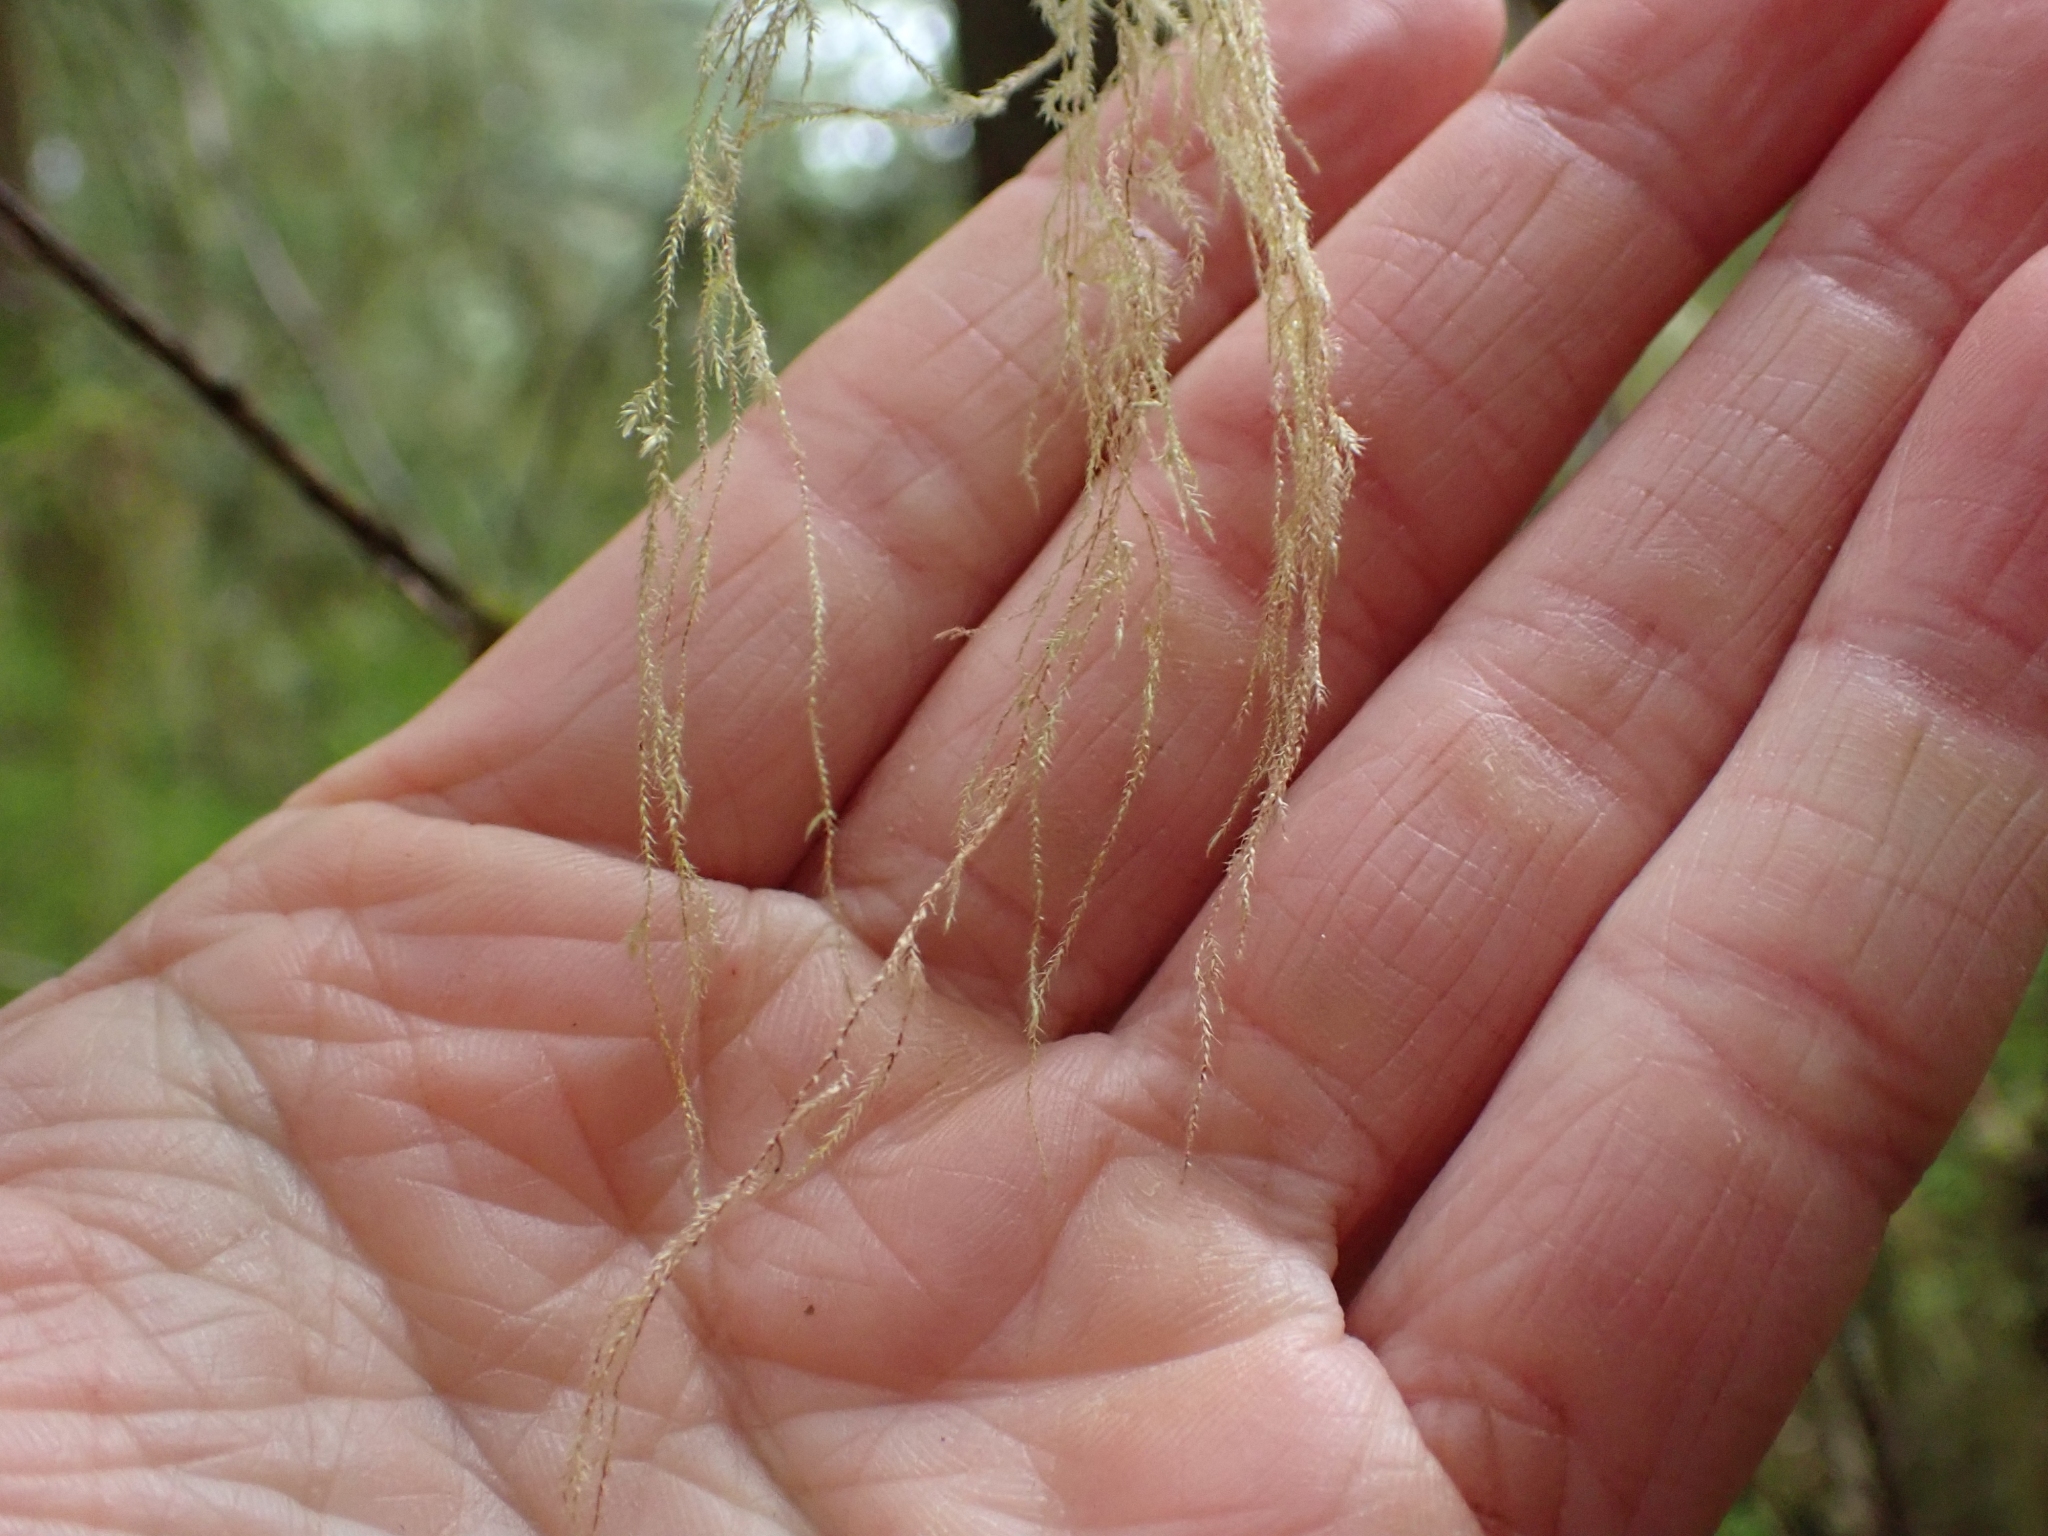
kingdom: Plantae
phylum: Bryophyta
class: Bryopsida
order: Hypnales
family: Lembophyllaceae
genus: Pseudisothecium
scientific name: Pseudisothecium stoloniferum
